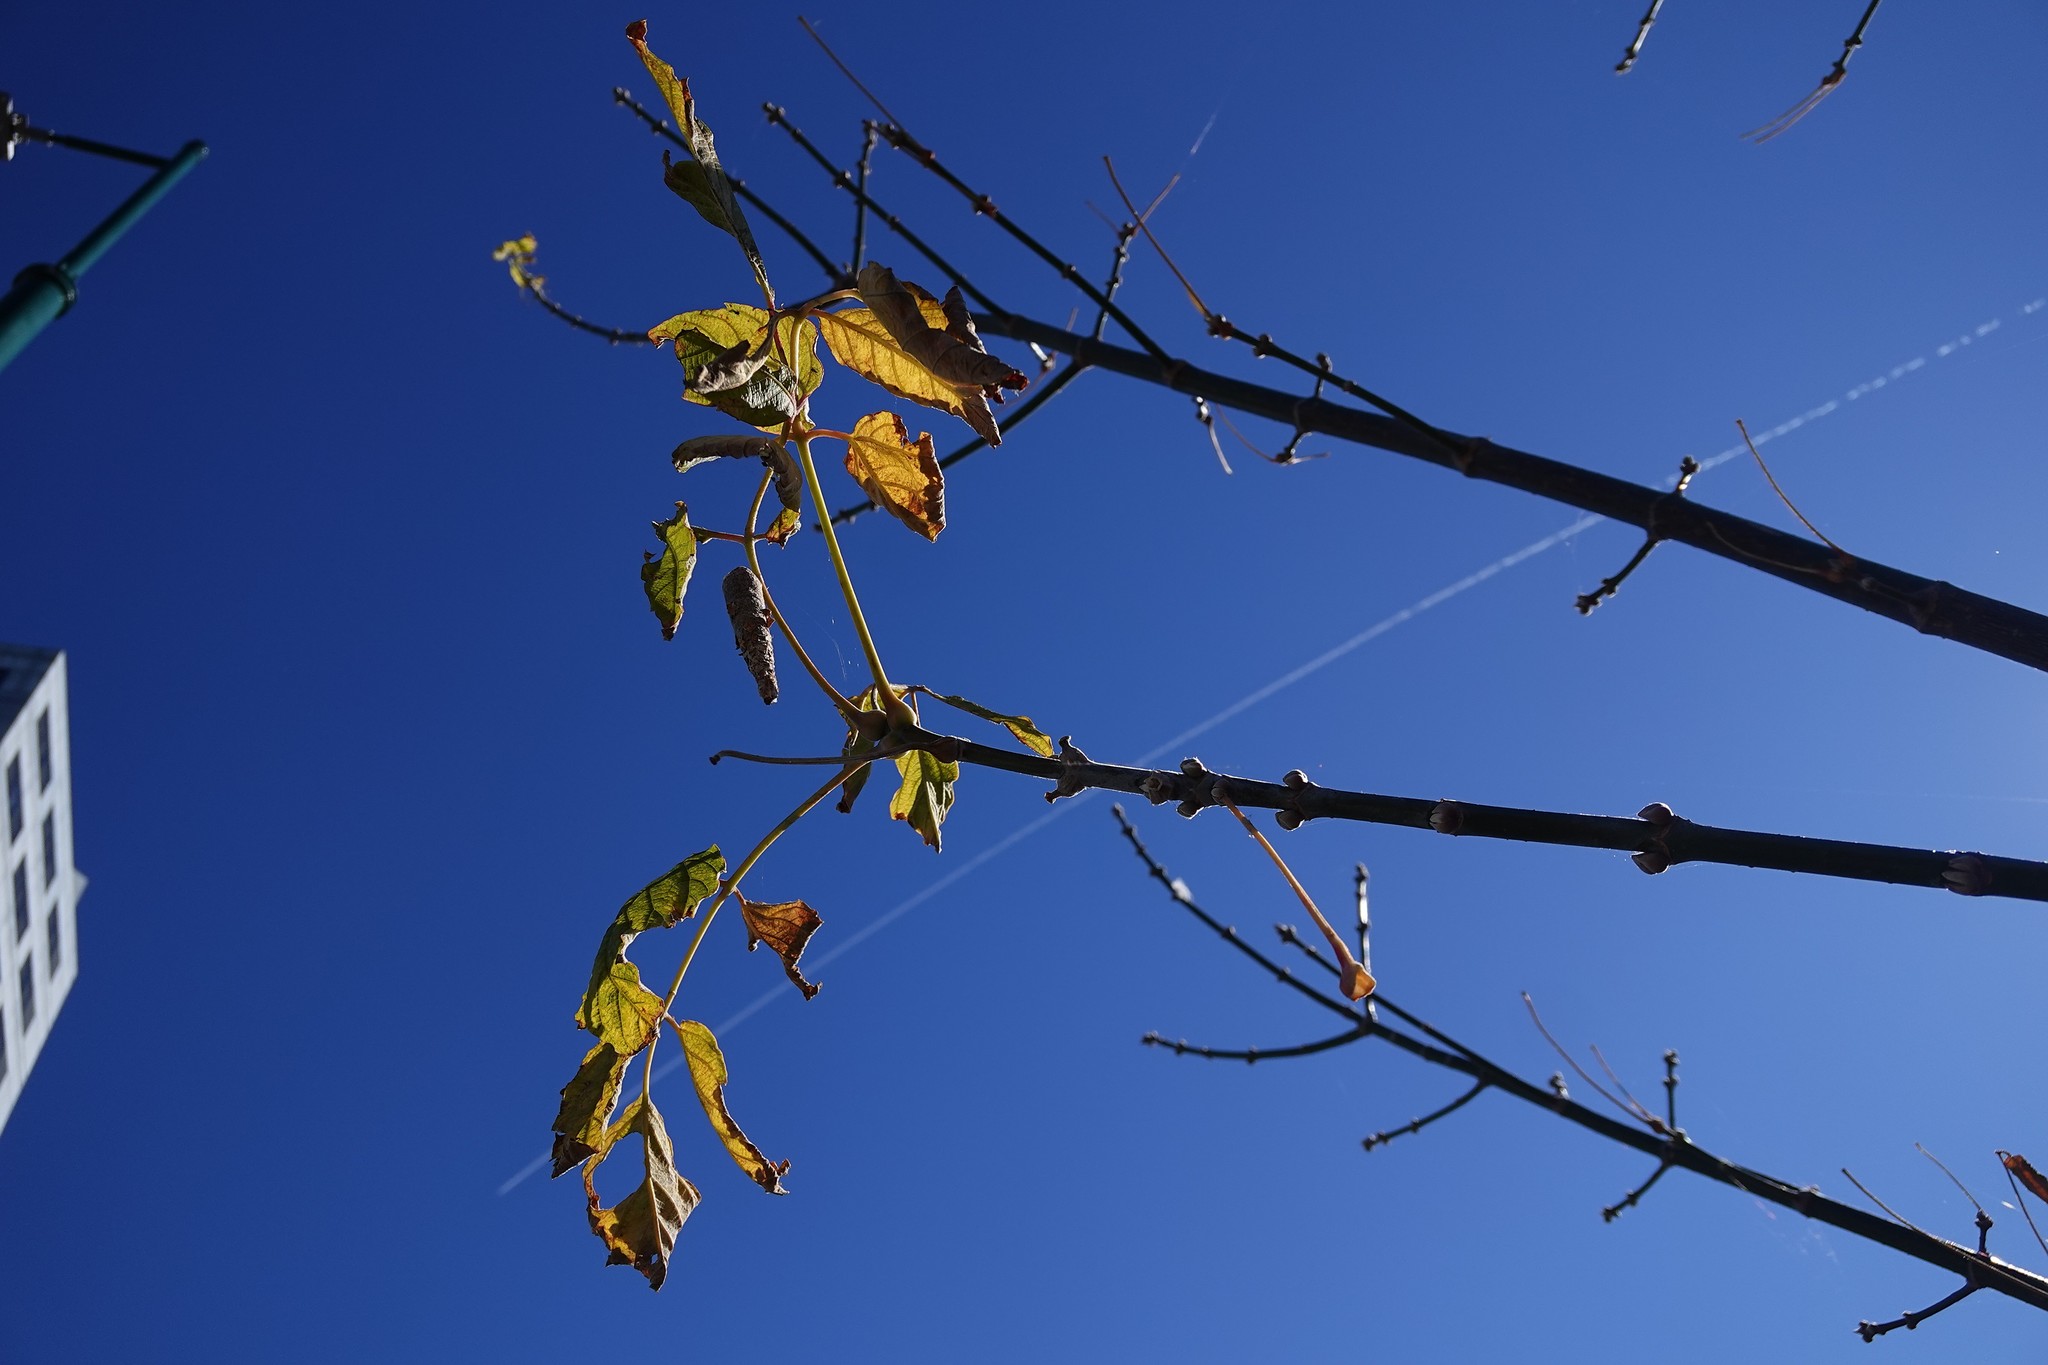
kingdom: Plantae
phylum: Tracheophyta
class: Magnoliopsida
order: Sapindales
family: Sapindaceae
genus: Acer
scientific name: Acer negundo
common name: Ashleaf maple
